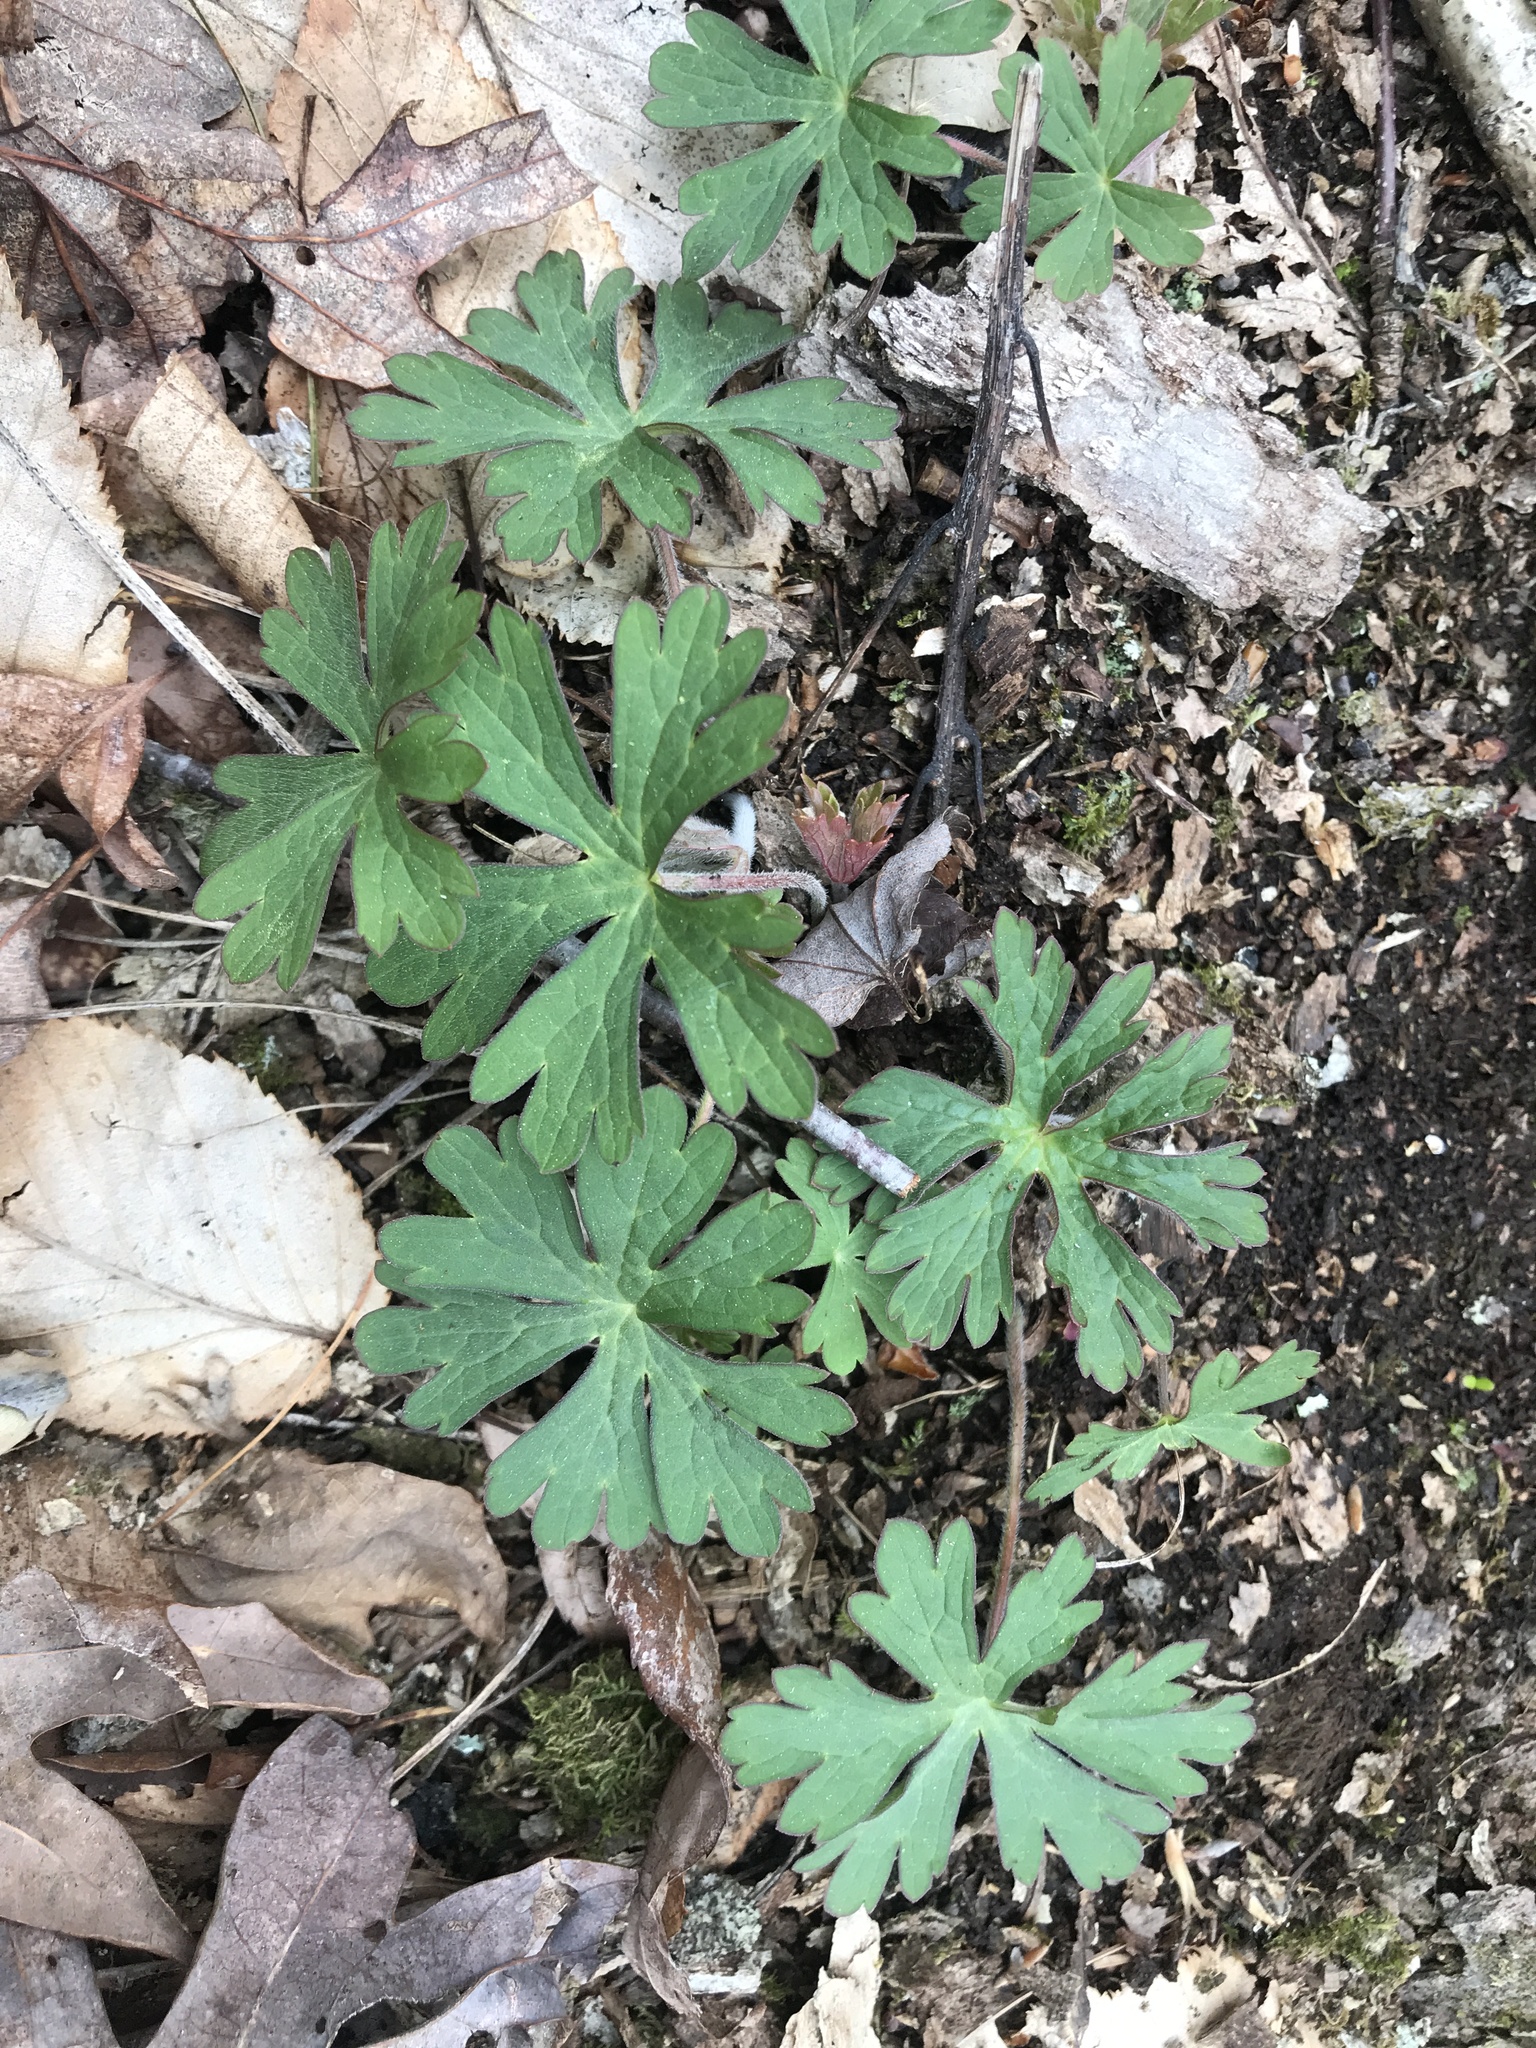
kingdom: Plantae
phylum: Tracheophyta
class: Magnoliopsida
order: Geraniales
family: Geraniaceae
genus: Geranium
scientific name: Geranium maculatum
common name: Spotted geranium
